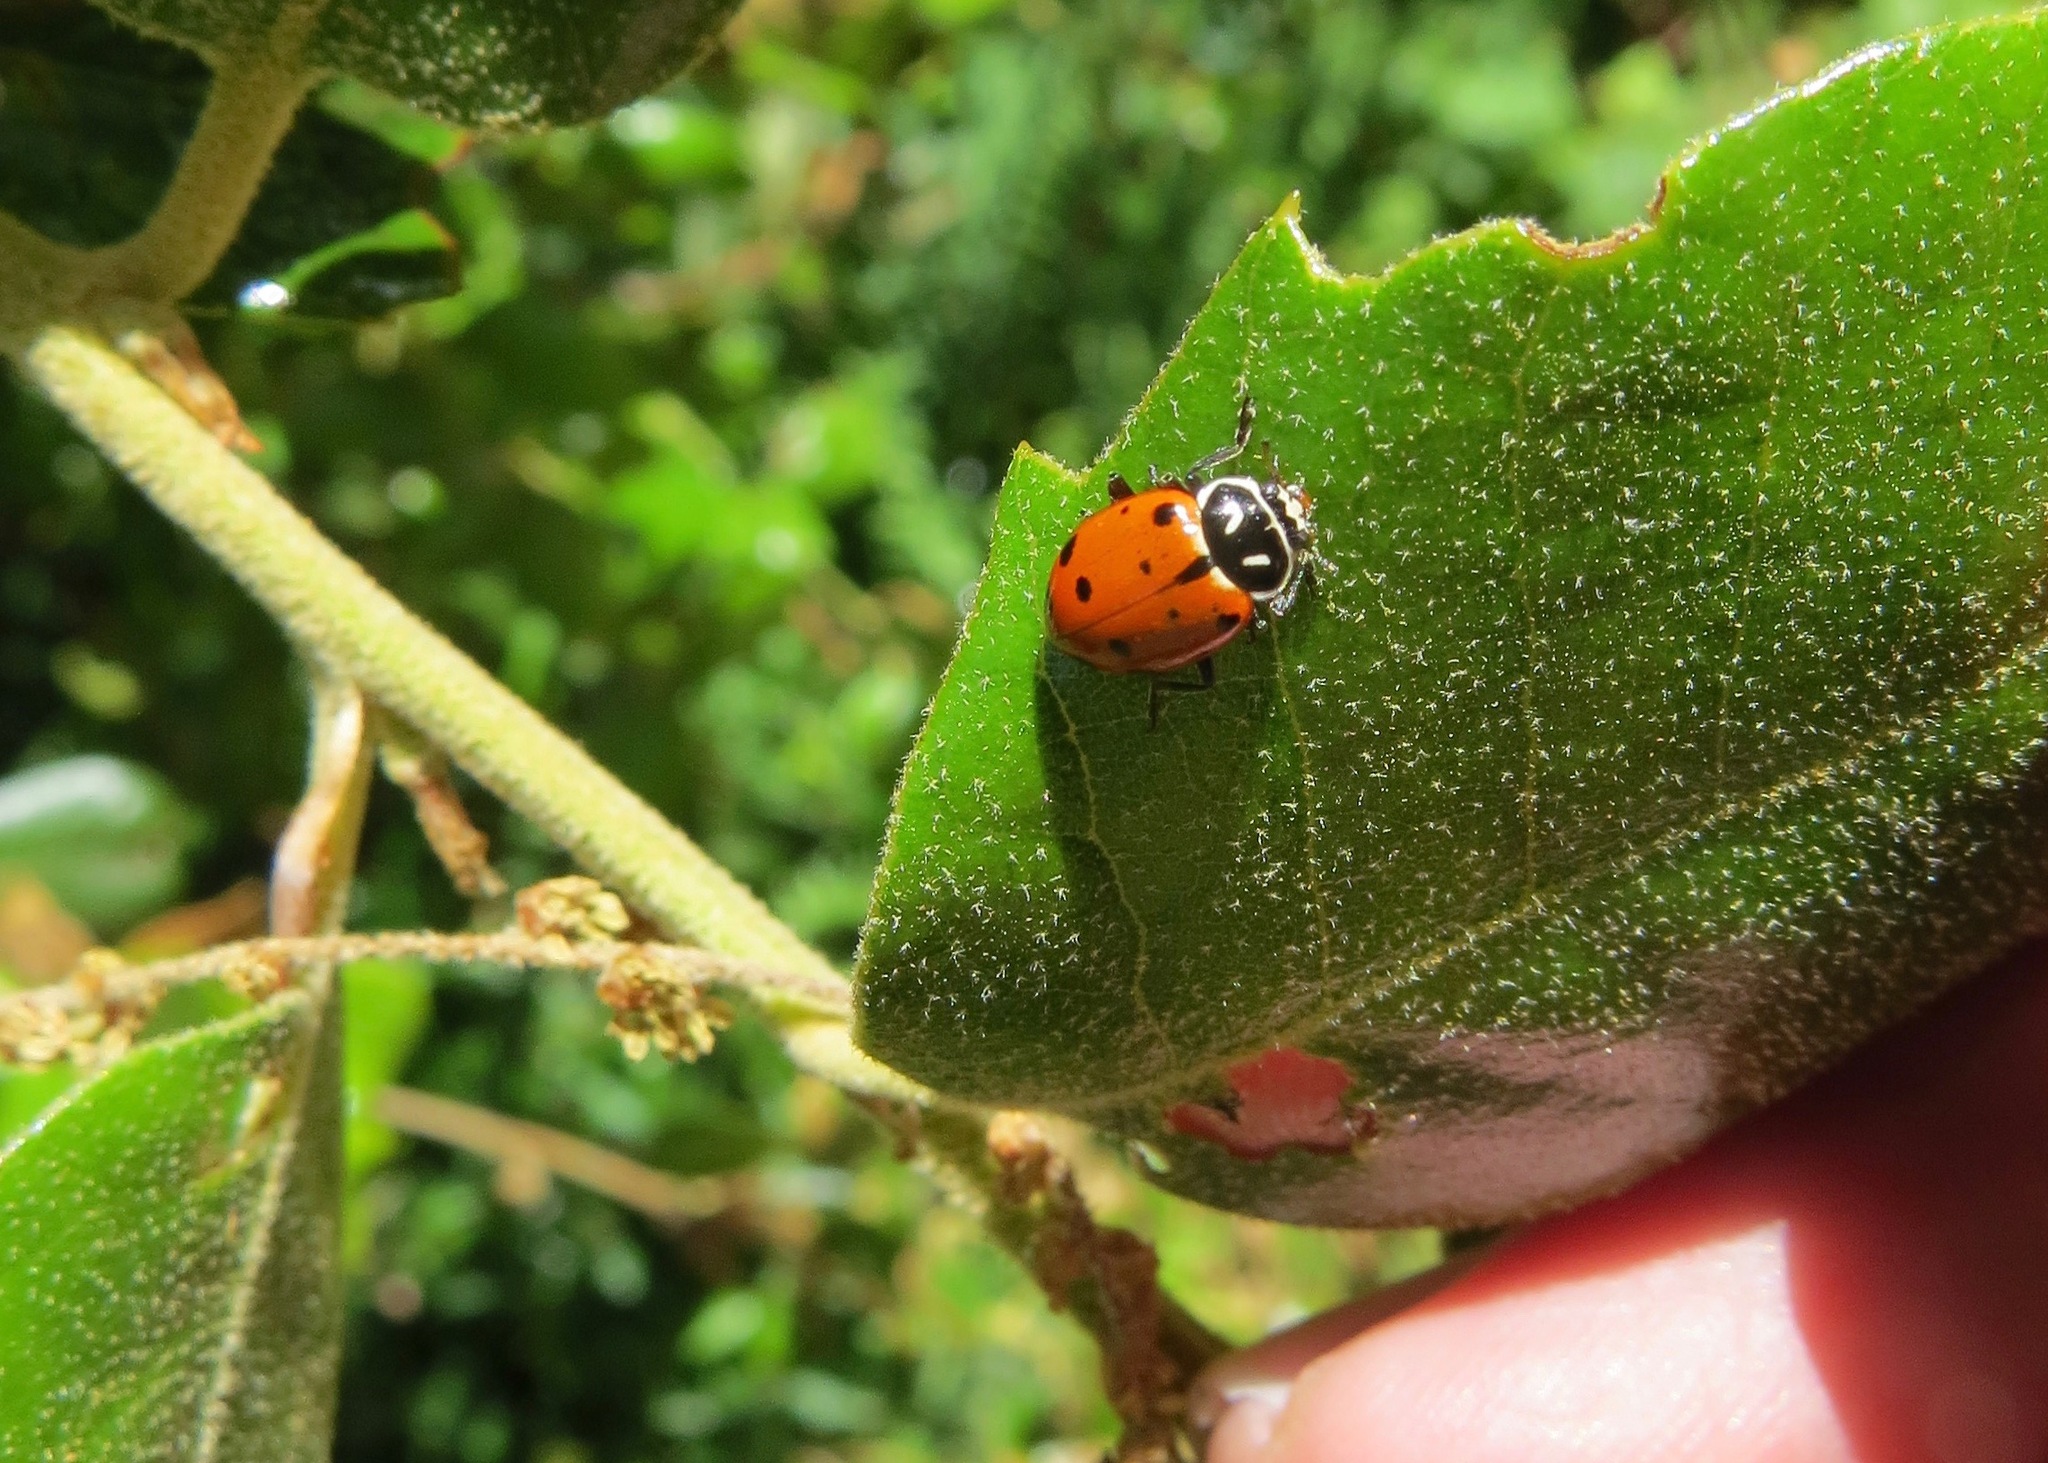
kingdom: Animalia
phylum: Arthropoda
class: Insecta
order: Coleoptera
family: Coccinellidae
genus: Hippodamia
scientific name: Hippodamia convergens
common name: Convergent lady beetle
